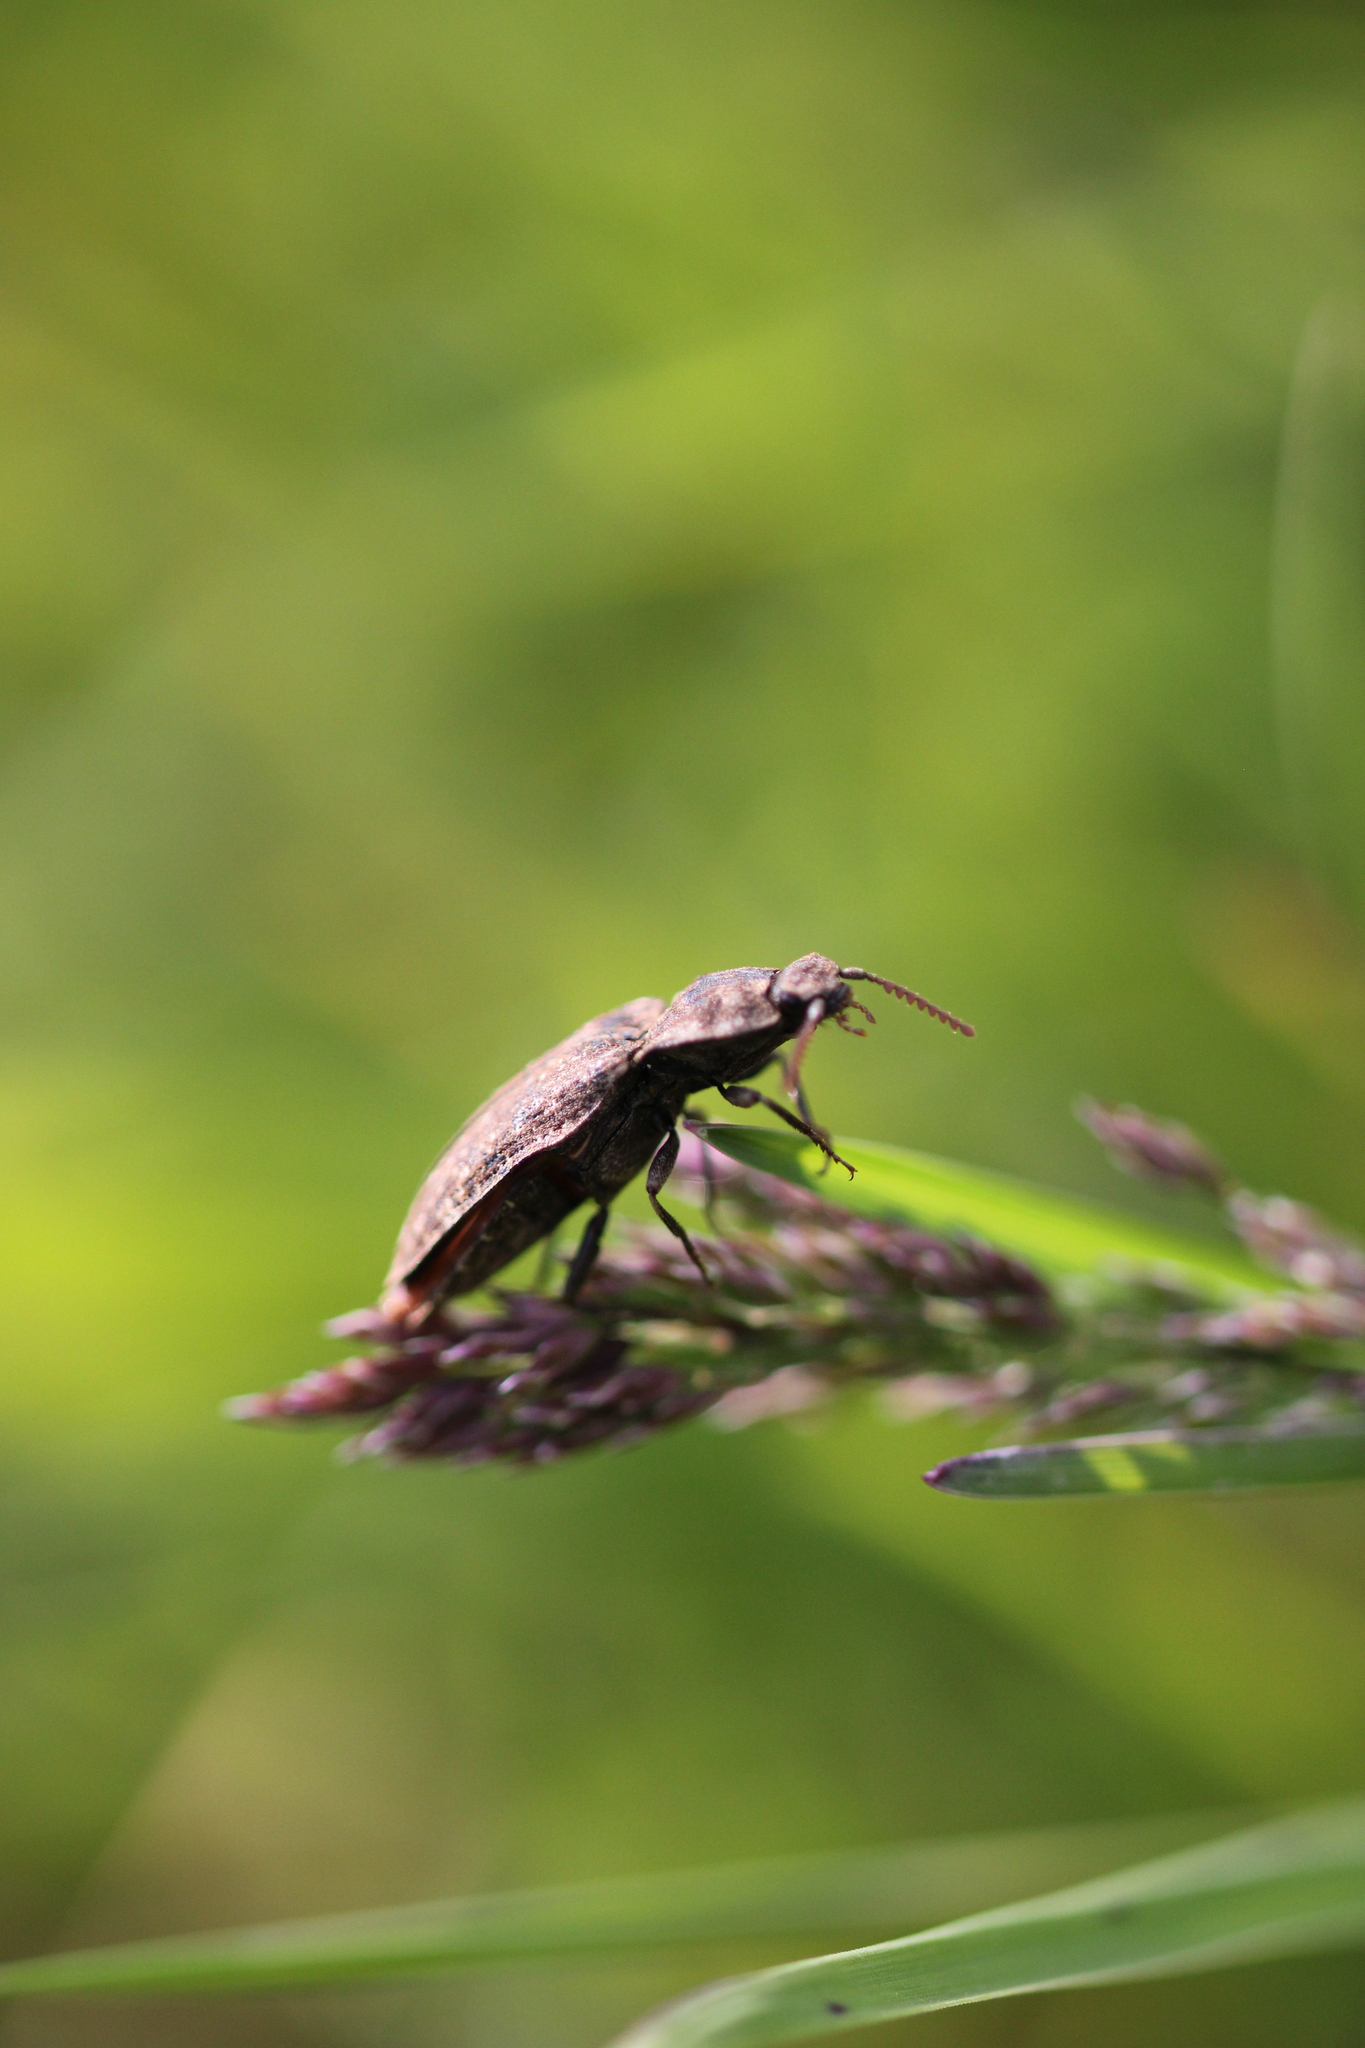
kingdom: Animalia
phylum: Arthropoda
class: Insecta
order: Coleoptera
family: Elateridae
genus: Agrypnus
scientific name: Agrypnus murinus
